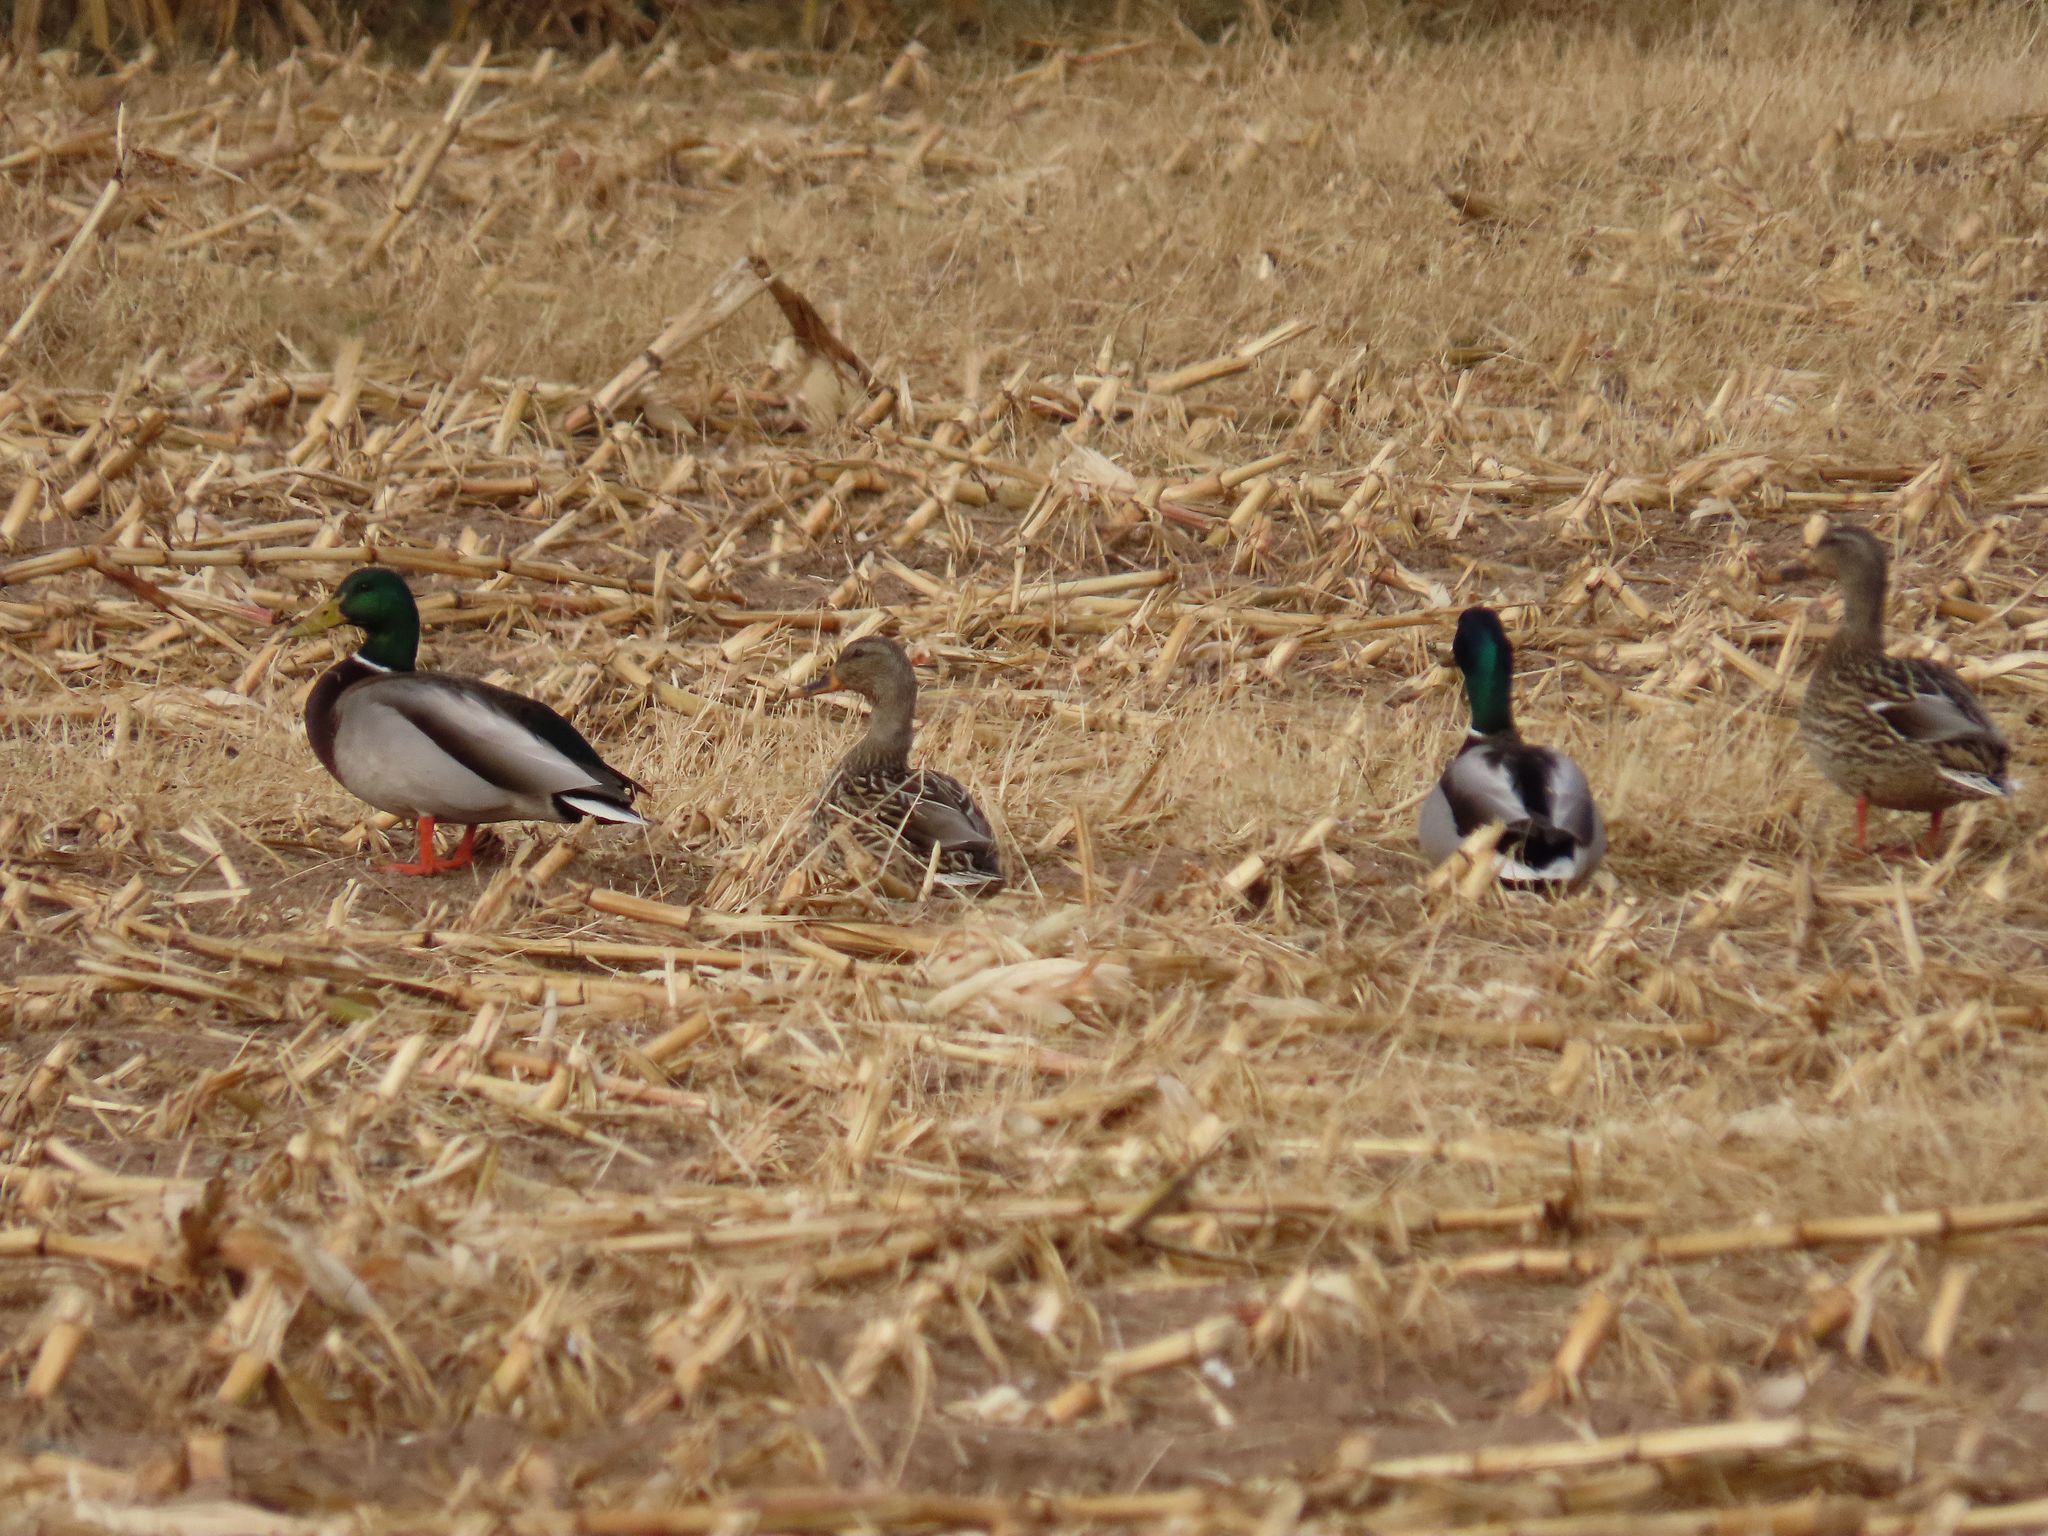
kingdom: Animalia
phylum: Chordata
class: Aves
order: Anseriformes
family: Anatidae
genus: Anas
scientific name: Anas platyrhynchos
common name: Mallard
